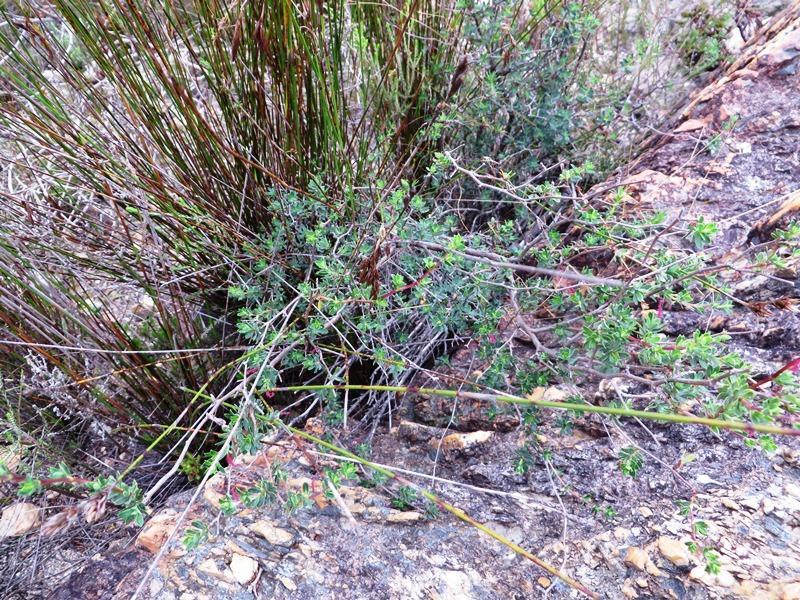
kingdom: Plantae
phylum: Tracheophyta
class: Magnoliopsida
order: Rosales
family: Rosaceae
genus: Cliffortia
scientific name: Cliffortia obovata
